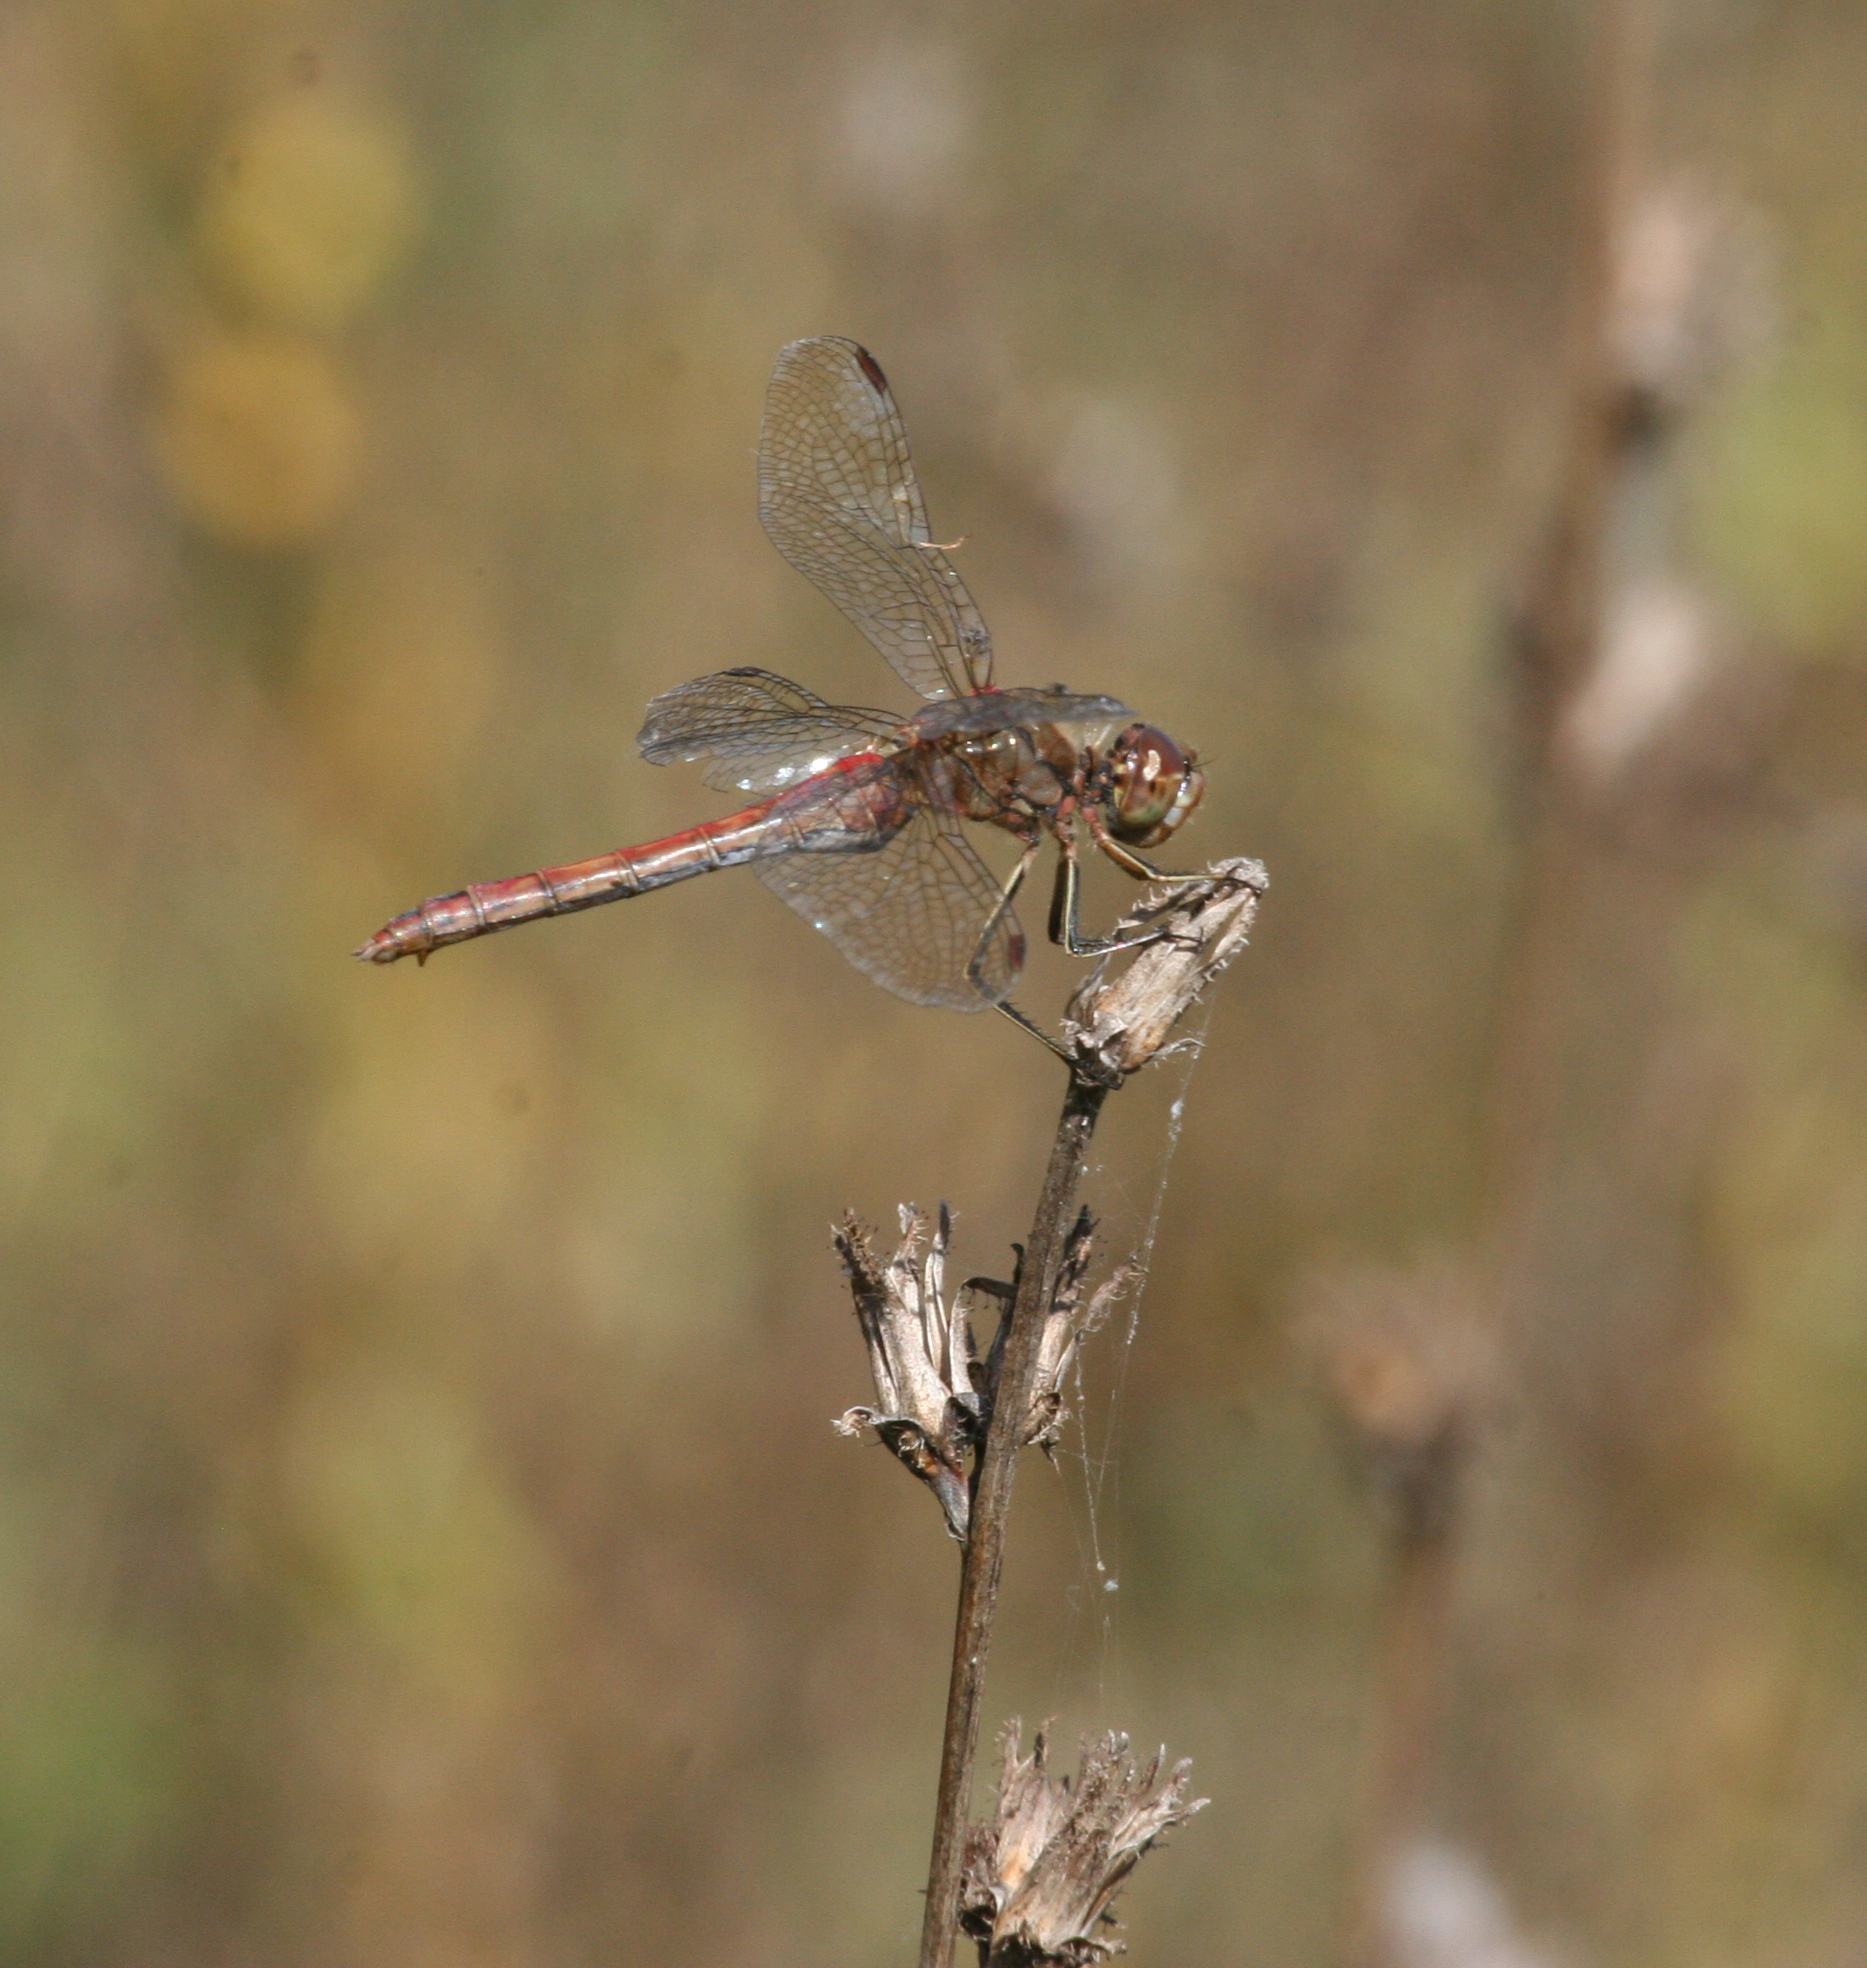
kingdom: Animalia
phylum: Arthropoda
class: Insecta
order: Odonata
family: Libellulidae
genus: Sympetrum
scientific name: Sympetrum vulgatum
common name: Vagrant darter
